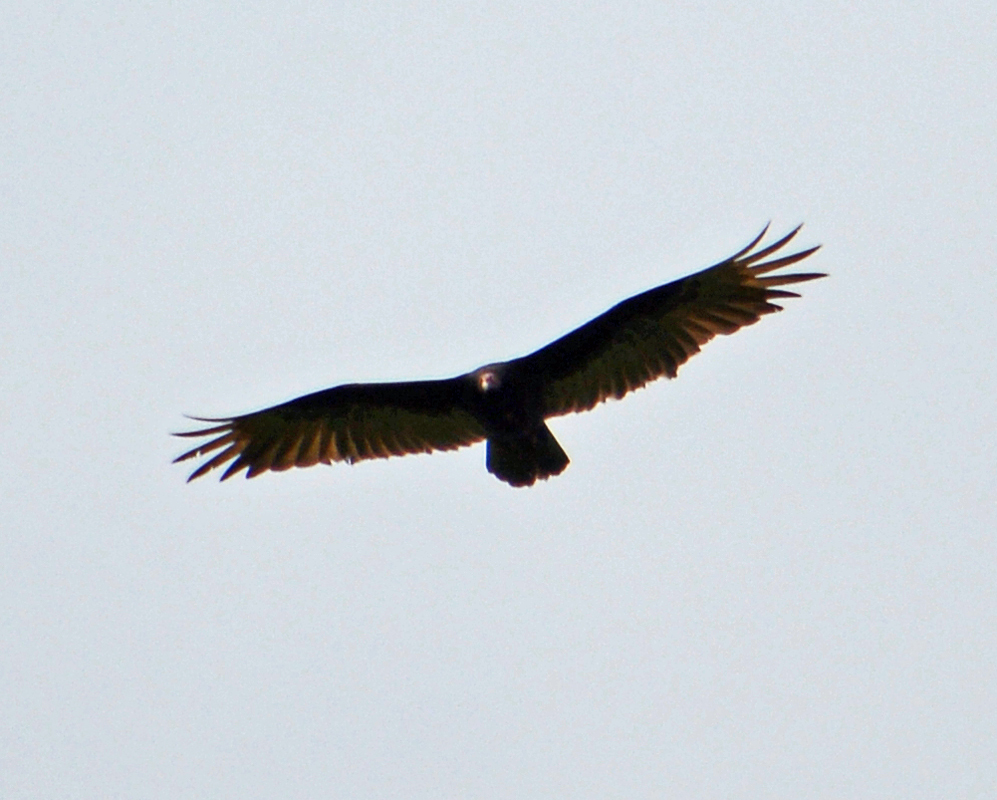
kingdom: Animalia
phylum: Chordata
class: Aves
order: Accipitriformes
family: Cathartidae
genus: Cathartes
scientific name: Cathartes aura
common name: Turkey vulture
